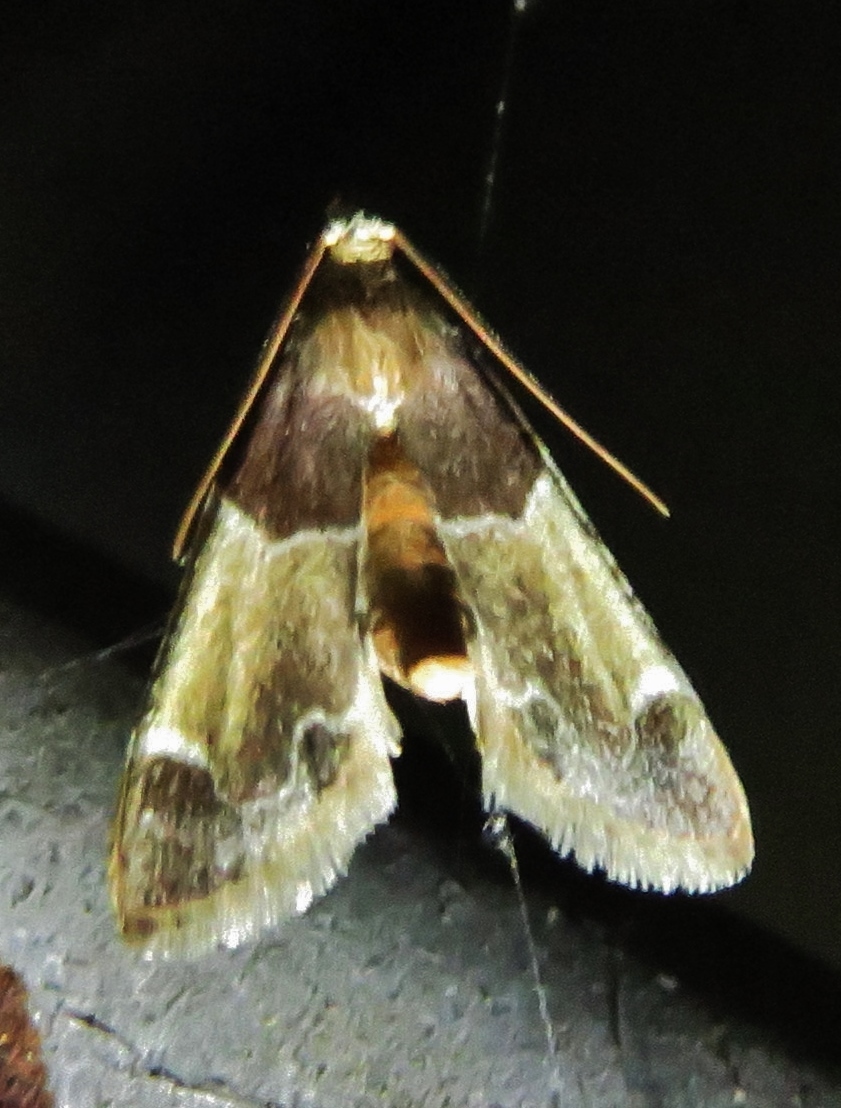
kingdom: Animalia
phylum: Arthropoda
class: Insecta
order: Lepidoptera
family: Pyralidae
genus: Pyralis
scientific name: Pyralis farinalis
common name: Meal moth
